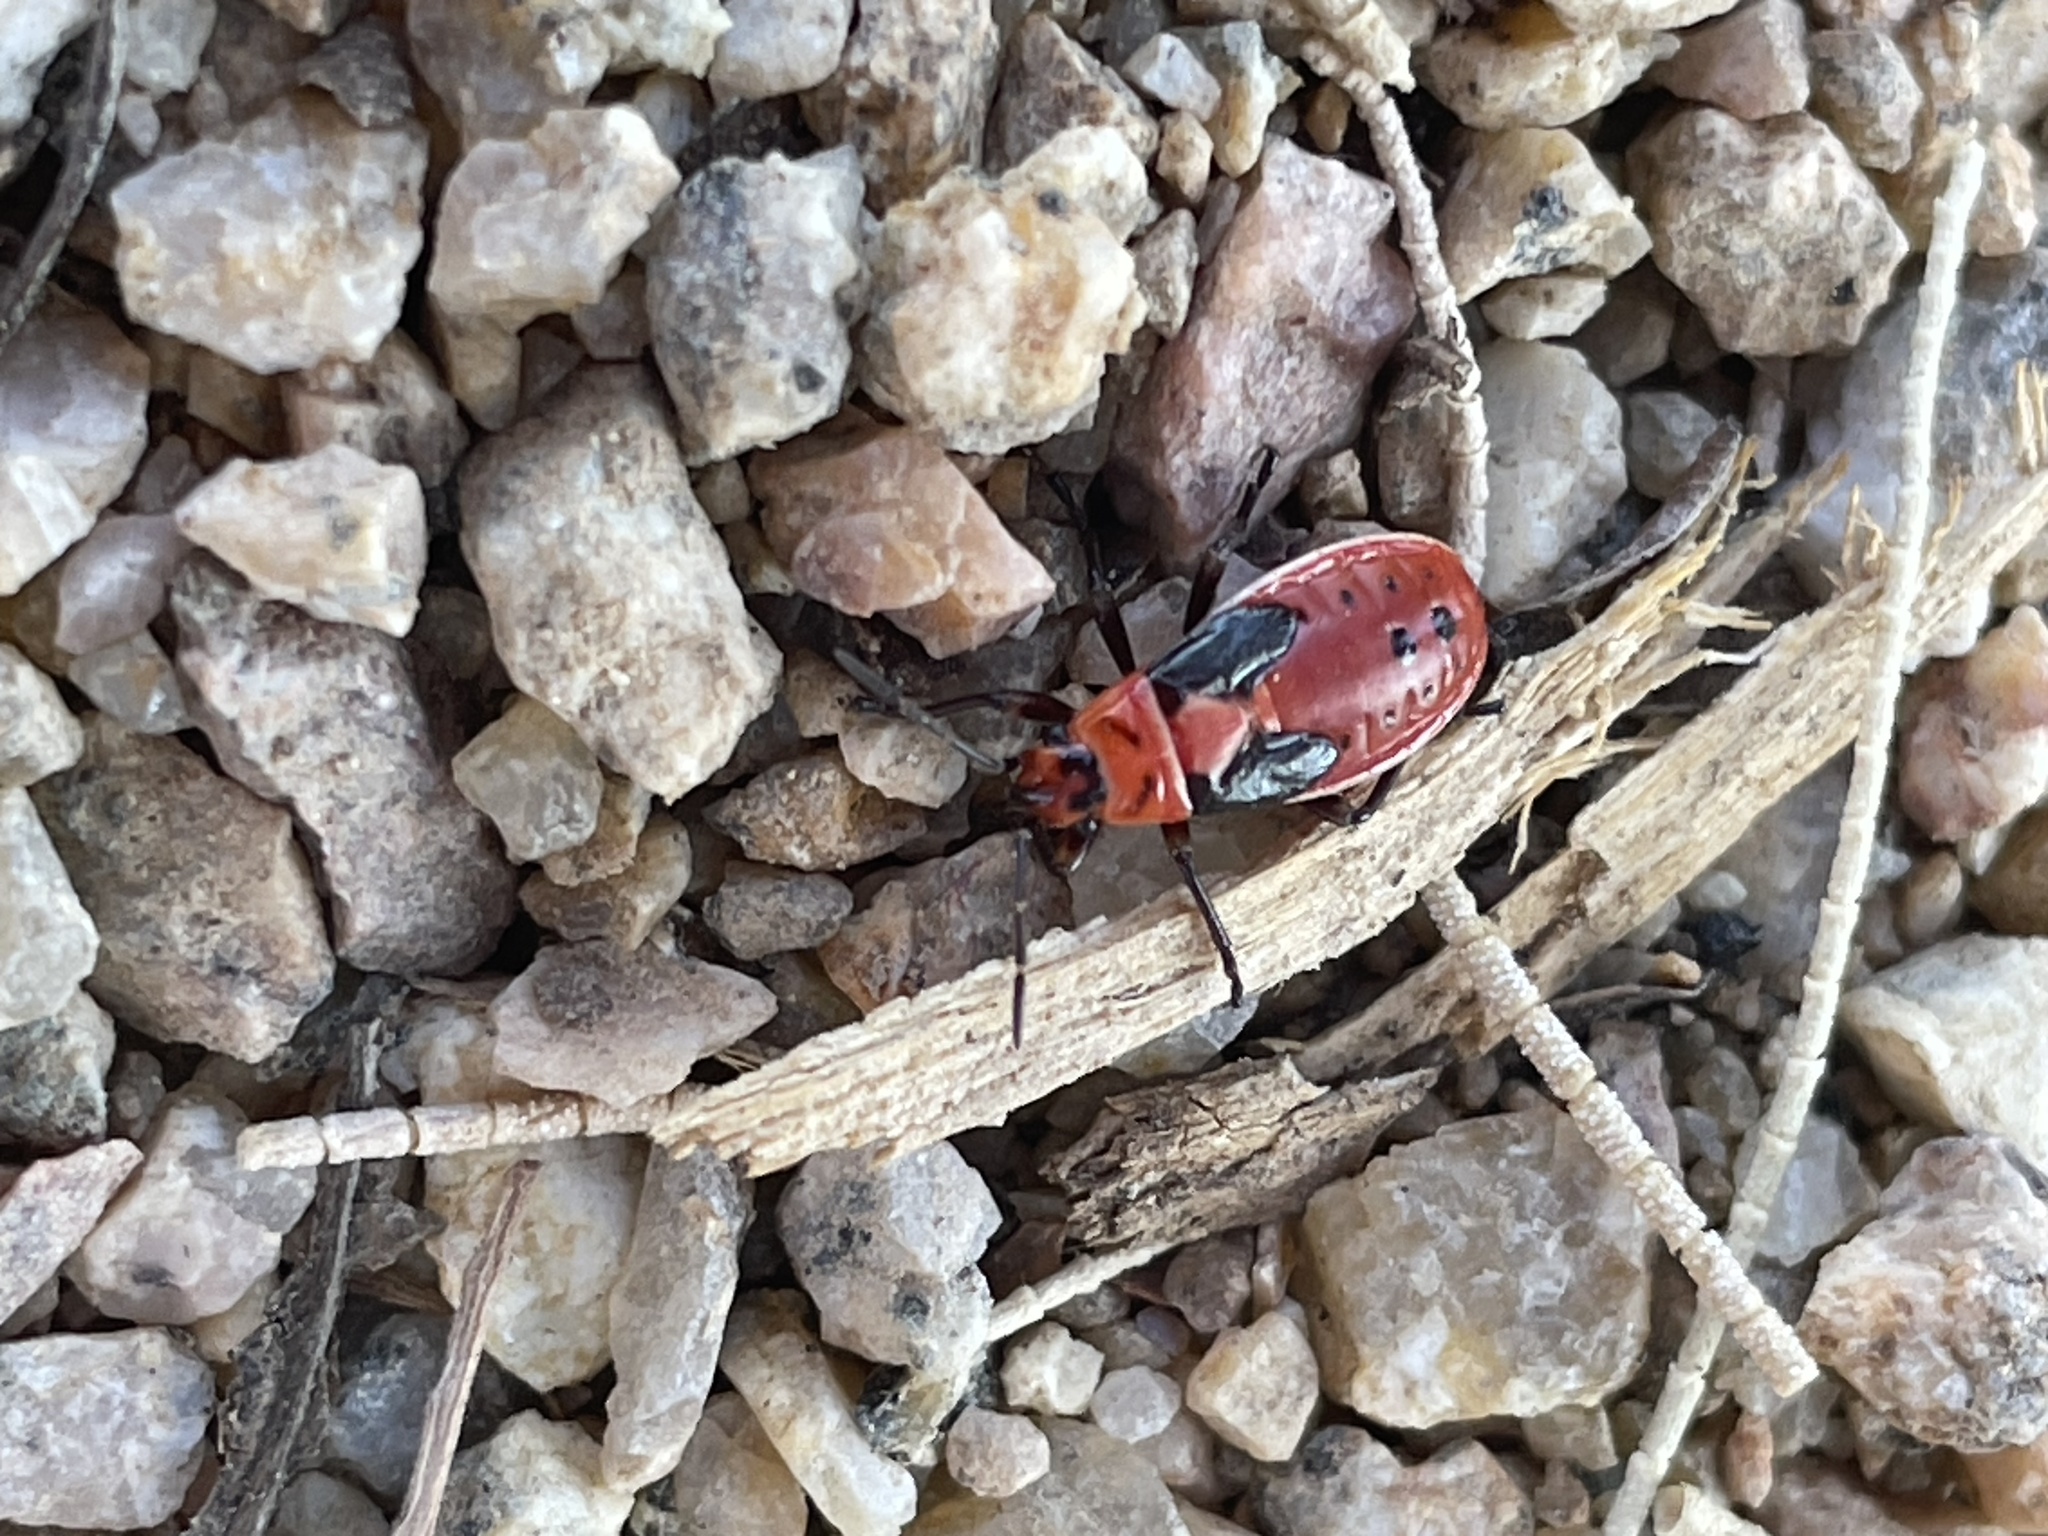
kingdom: Animalia
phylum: Arthropoda
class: Insecta
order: Hemiptera
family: Lygaeidae
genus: Lygaeus
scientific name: Lygaeus kalmii
